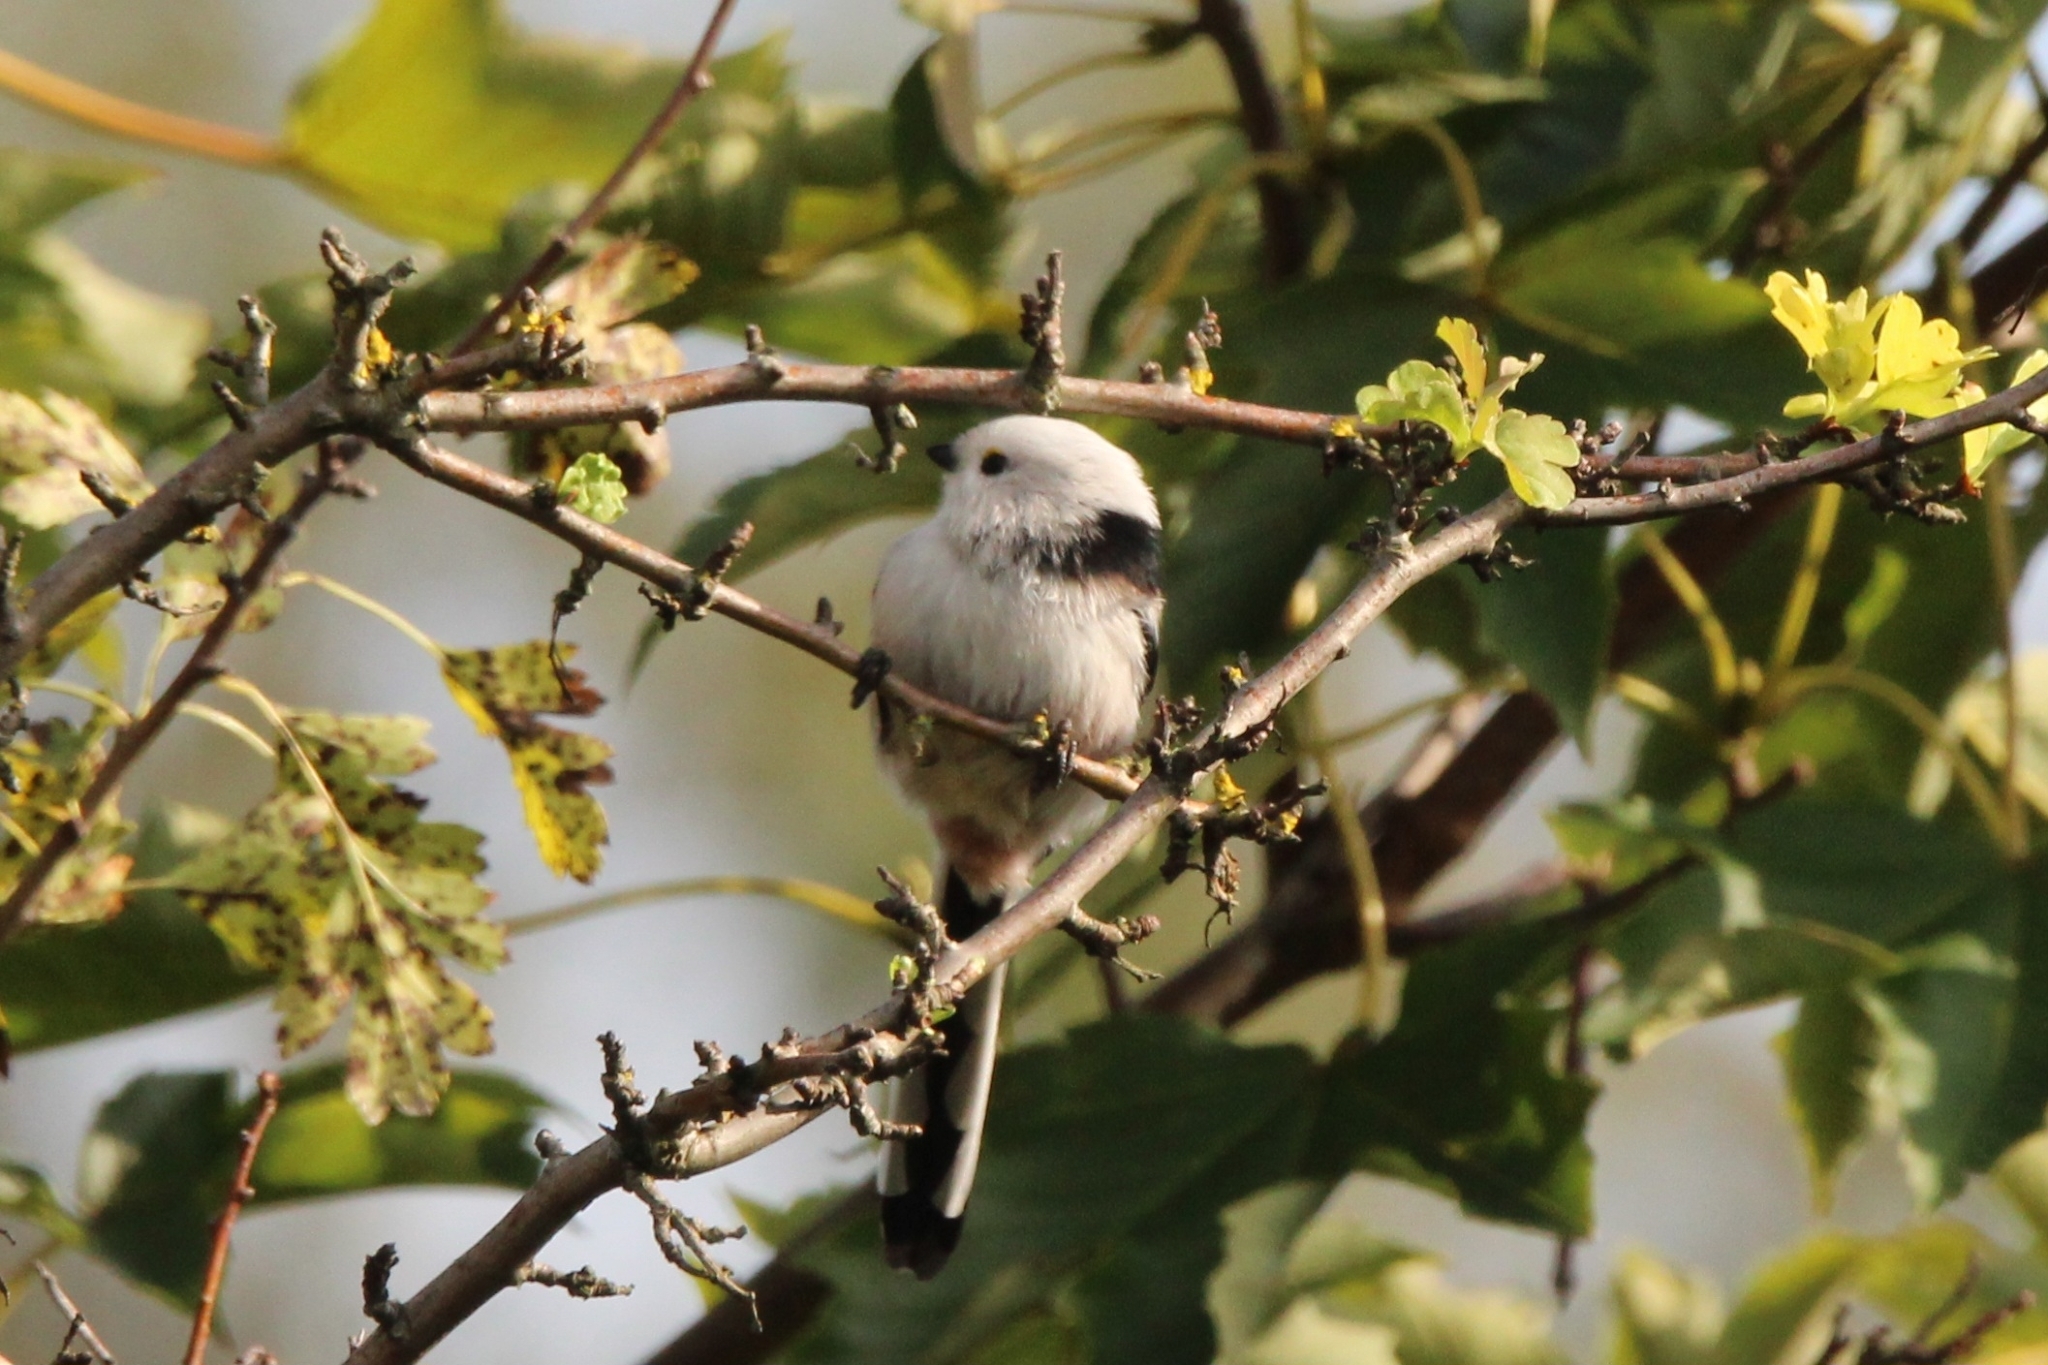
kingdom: Animalia
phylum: Chordata
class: Aves
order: Passeriformes
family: Aegithalidae
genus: Aegithalos
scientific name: Aegithalos caudatus
